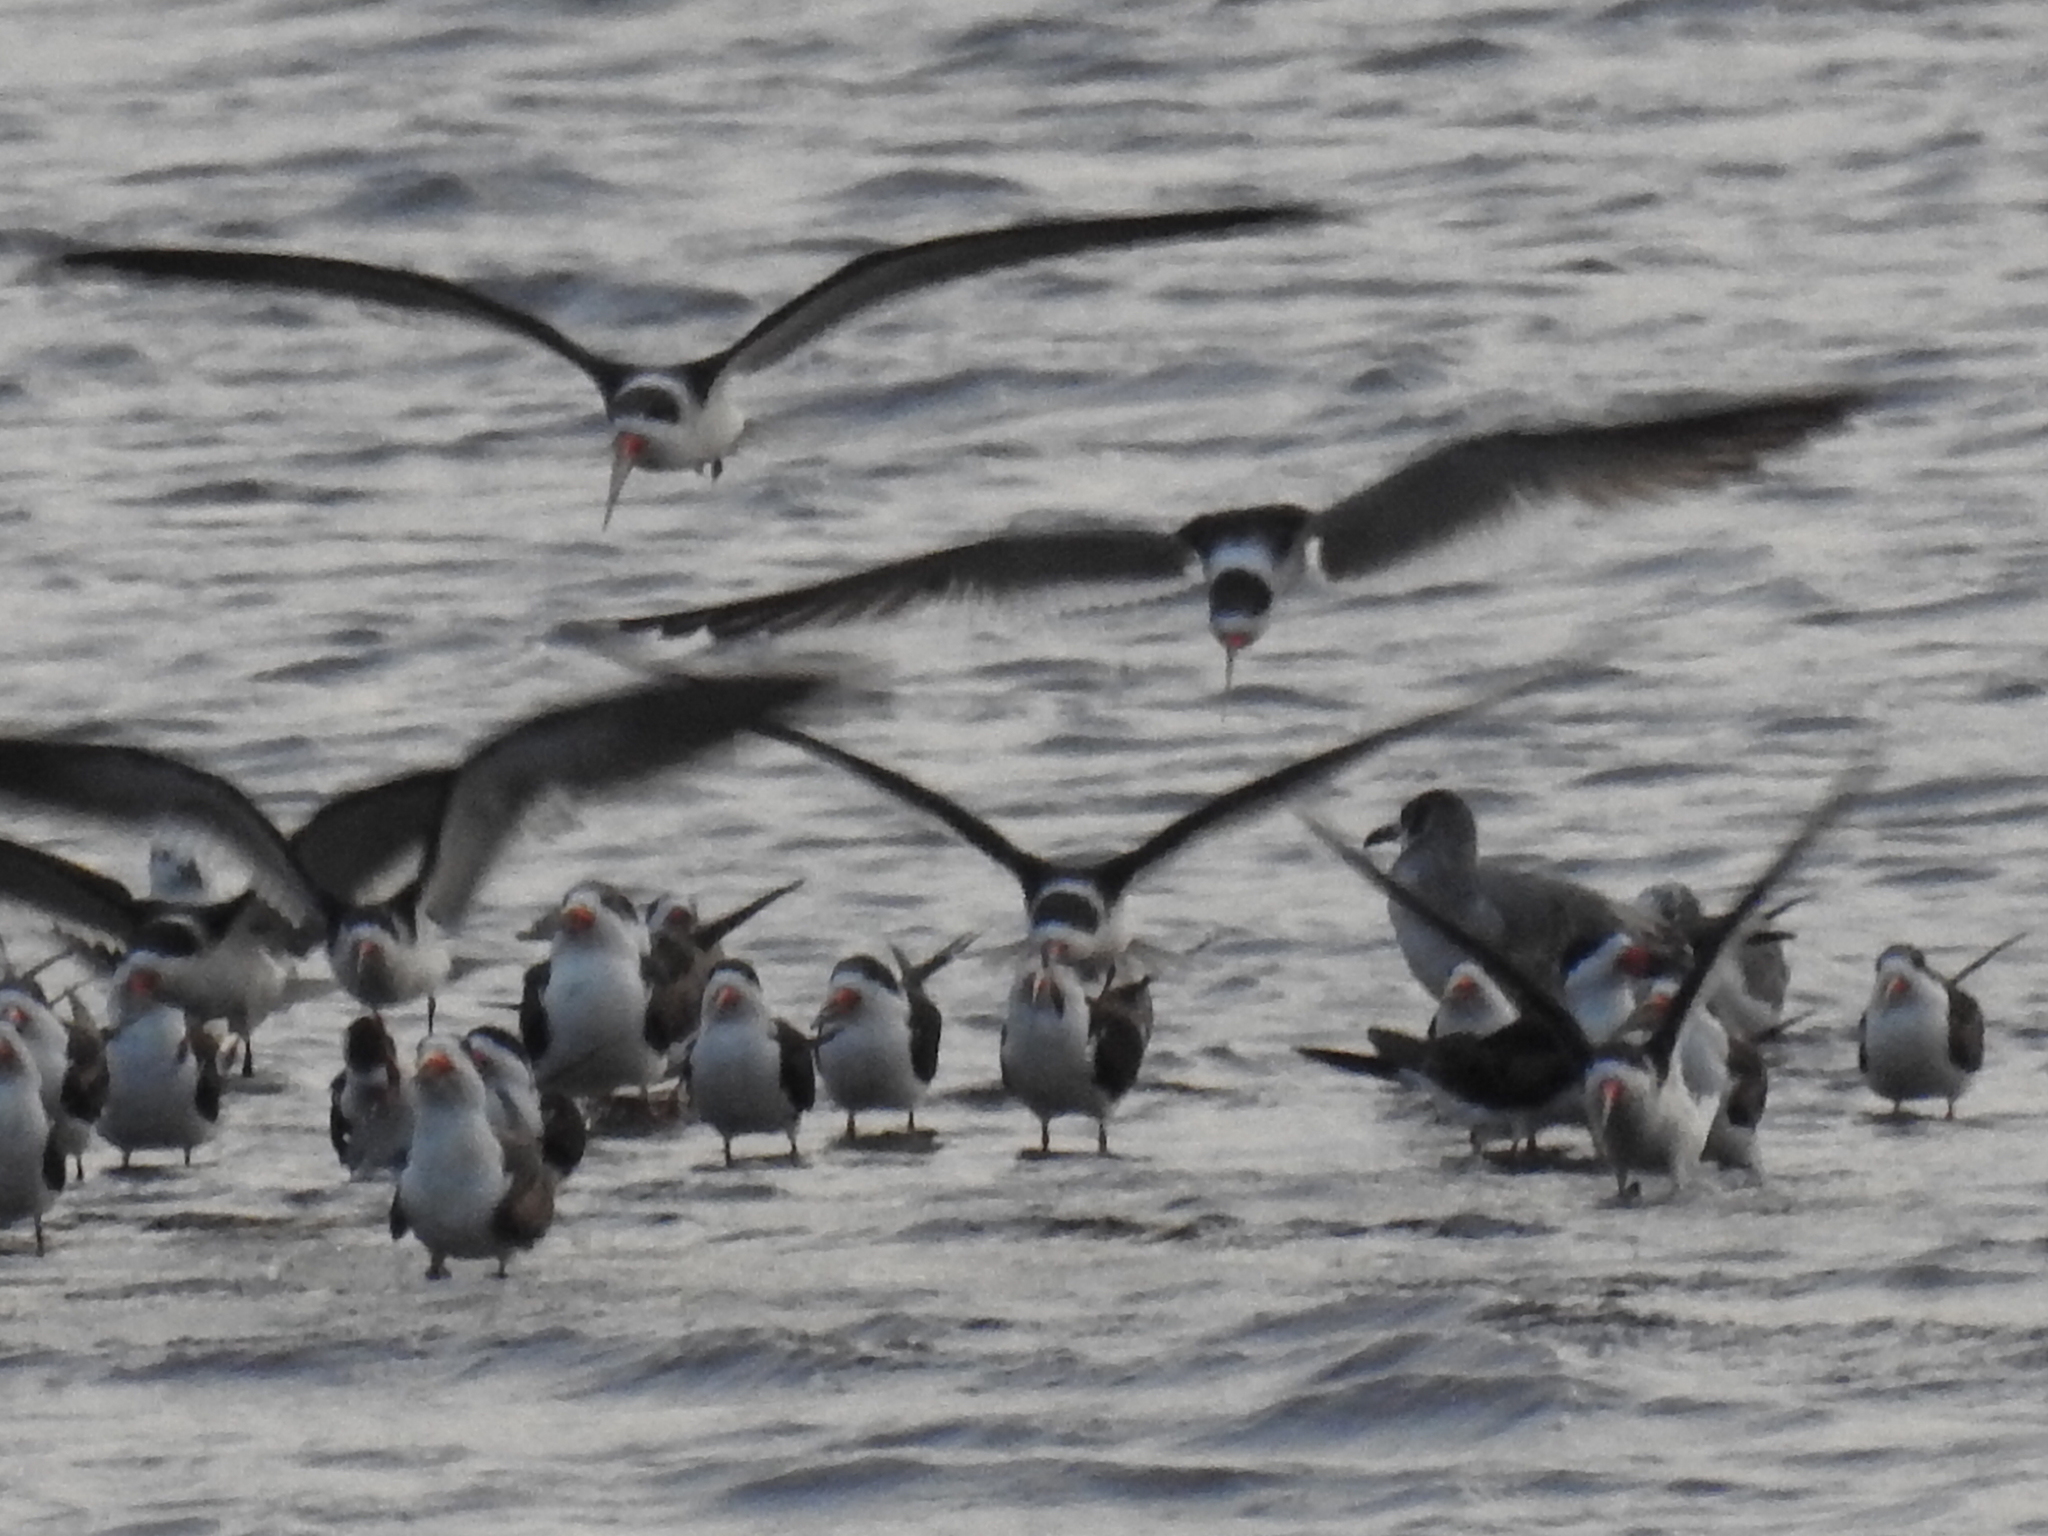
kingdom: Animalia
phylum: Chordata
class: Aves
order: Charadriiformes
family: Laridae
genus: Rynchops
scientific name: Rynchops niger
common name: Black skimmer
